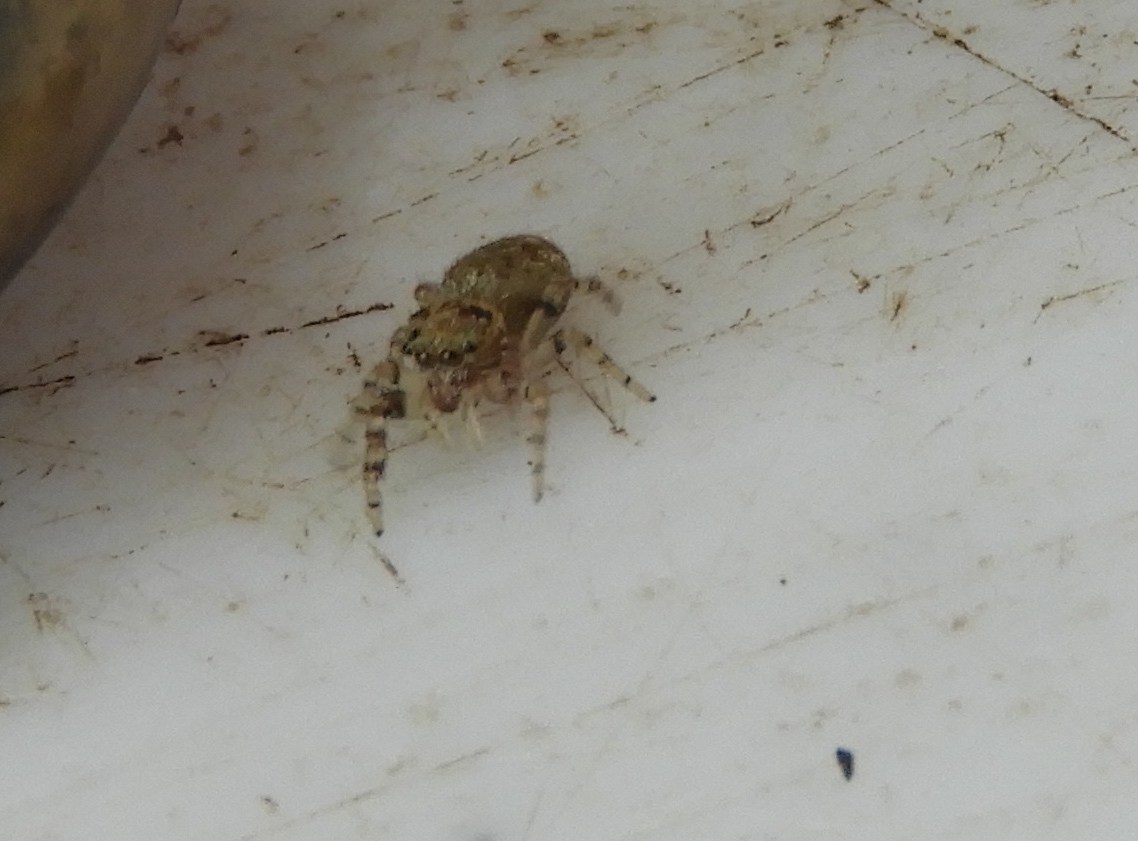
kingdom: Animalia
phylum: Arthropoda
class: Arachnida
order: Araneae
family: Salticidae
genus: Mexigonus
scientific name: Mexigonus
